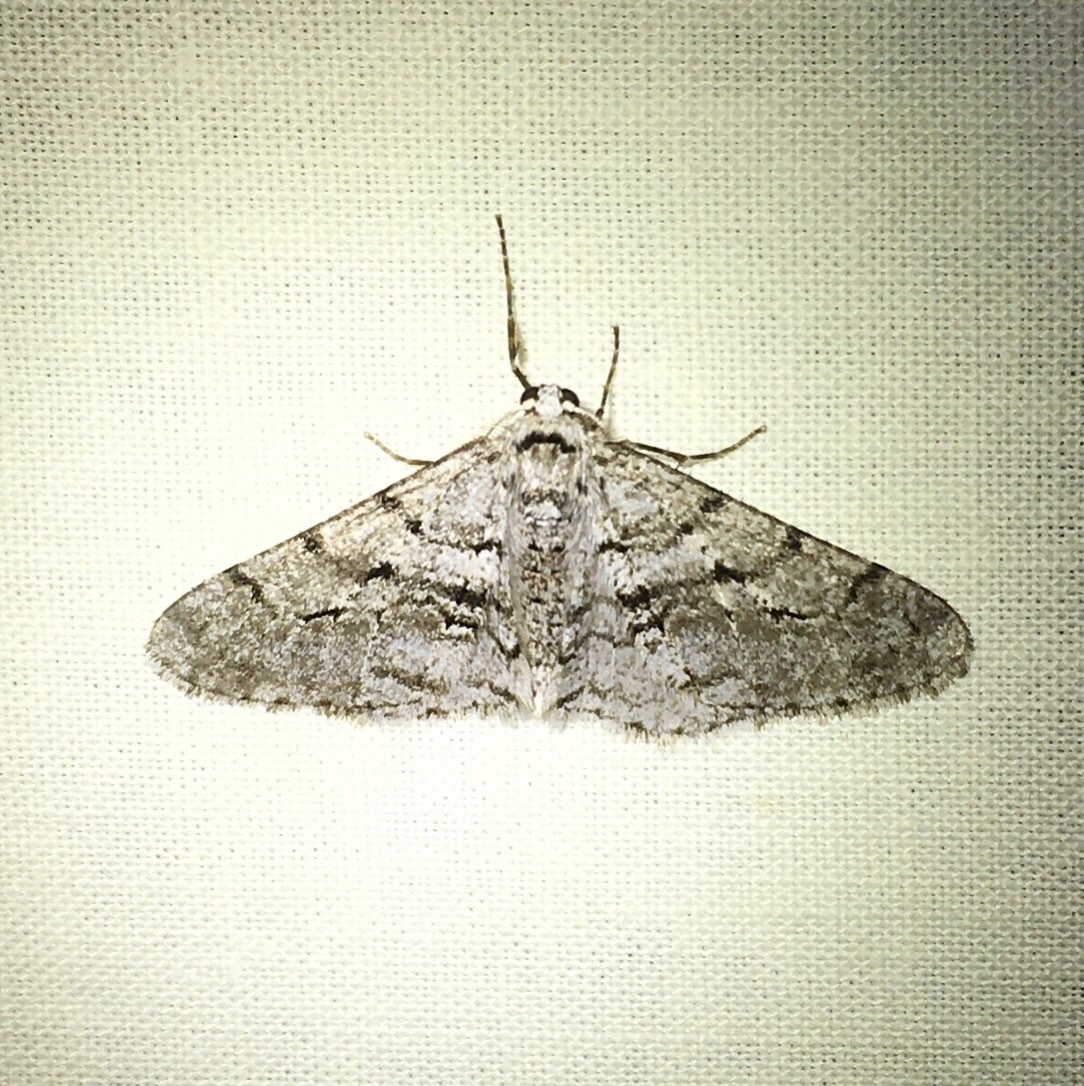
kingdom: Animalia
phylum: Arthropoda
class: Insecta
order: Lepidoptera
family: Geometridae
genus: Phigalia
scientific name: Phigalia titea
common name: Spiny looper
